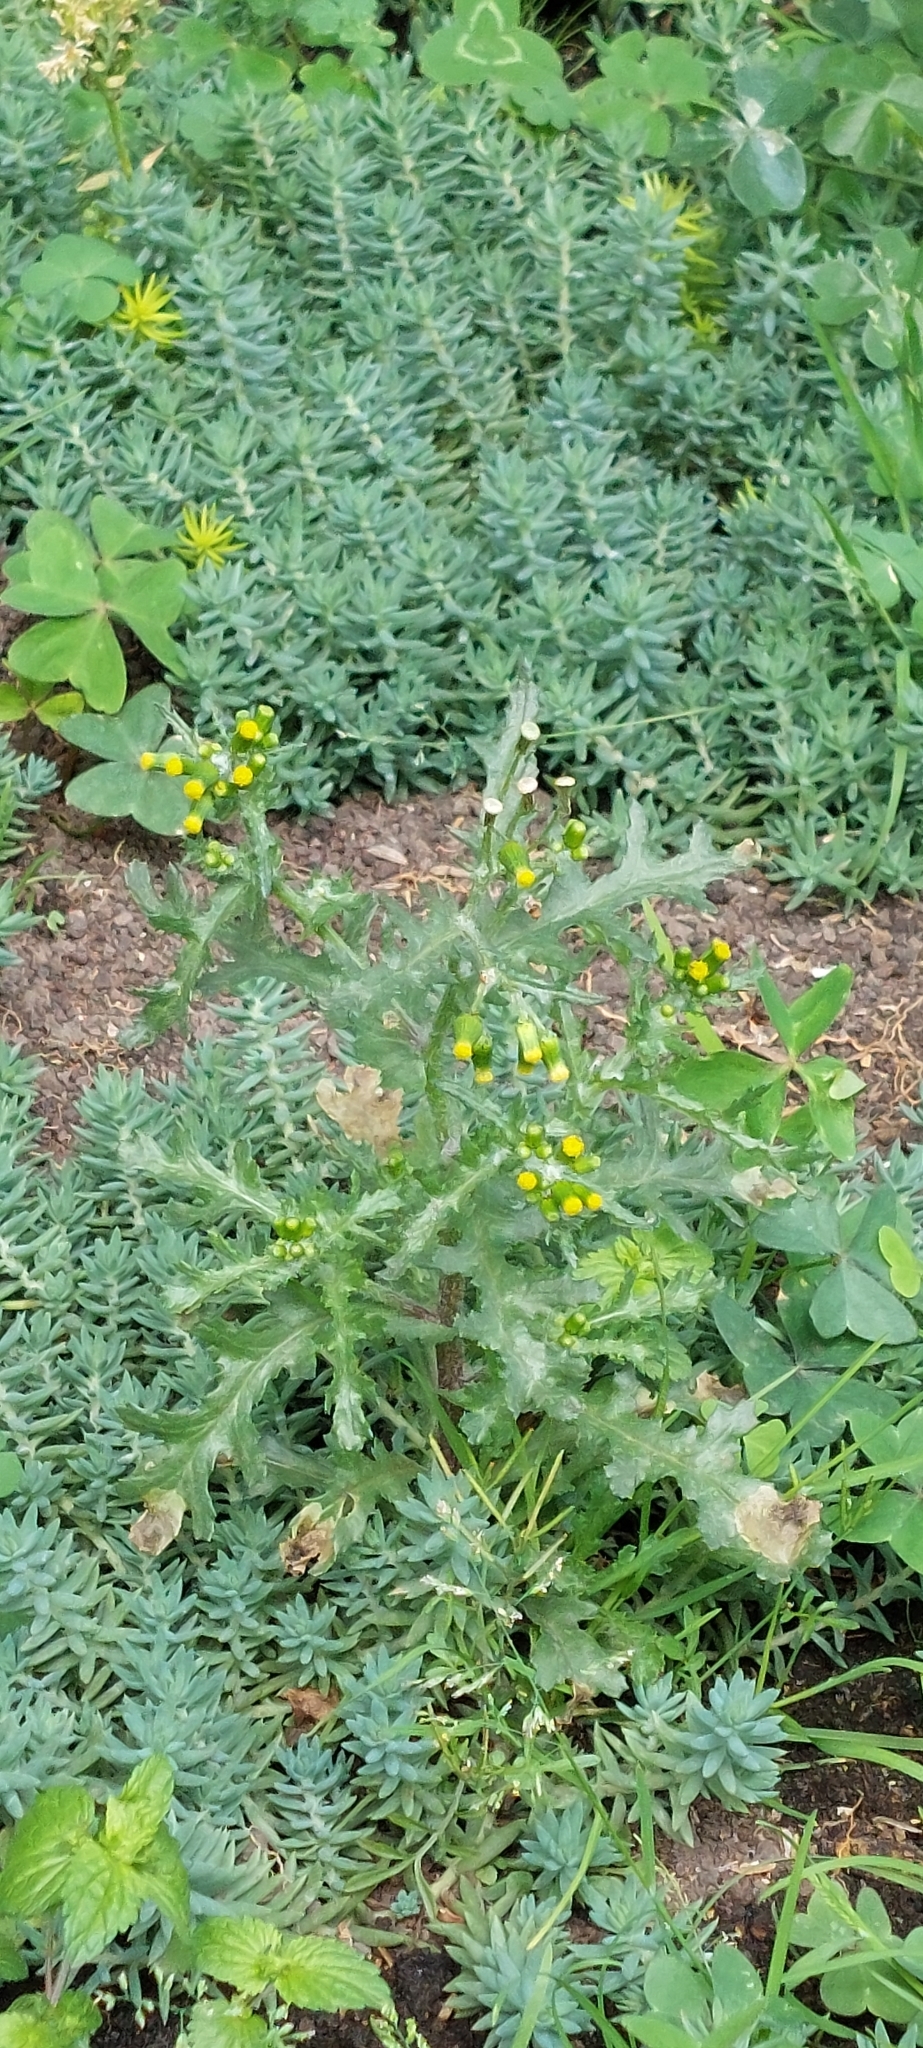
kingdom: Plantae
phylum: Tracheophyta
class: Magnoliopsida
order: Asterales
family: Asteraceae
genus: Senecio
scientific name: Senecio vulgaris
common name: Old-man-in-the-spring
